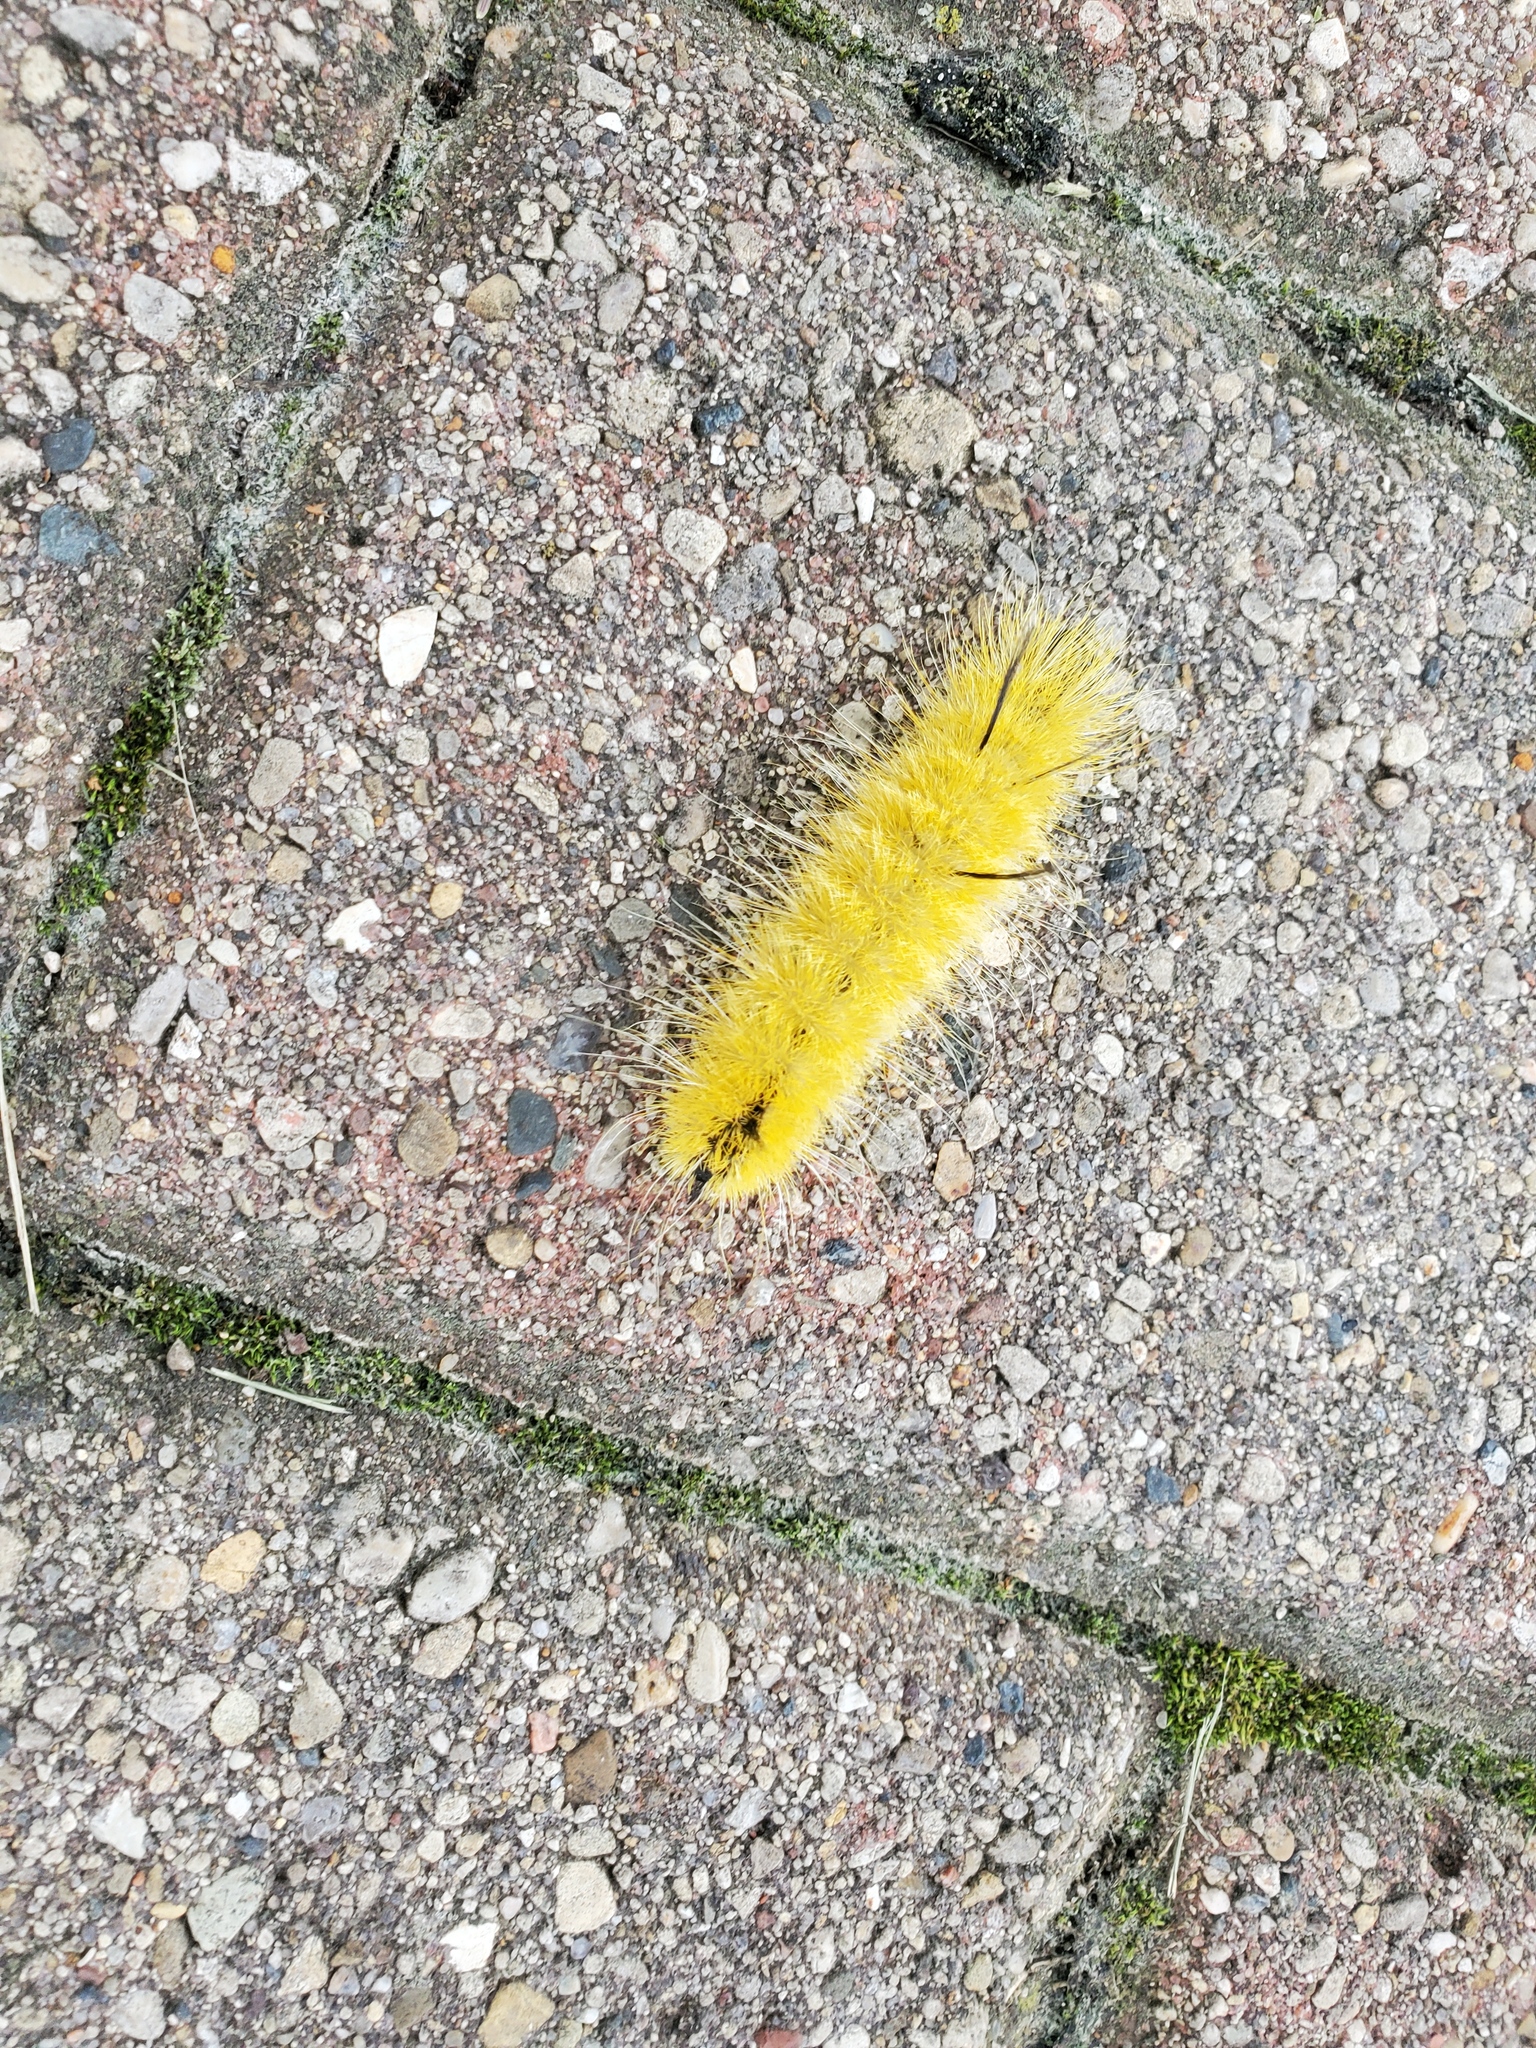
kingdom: Animalia
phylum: Arthropoda
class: Insecta
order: Lepidoptera
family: Noctuidae
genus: Acronicta
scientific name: Acronicta americana
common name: American dagger
